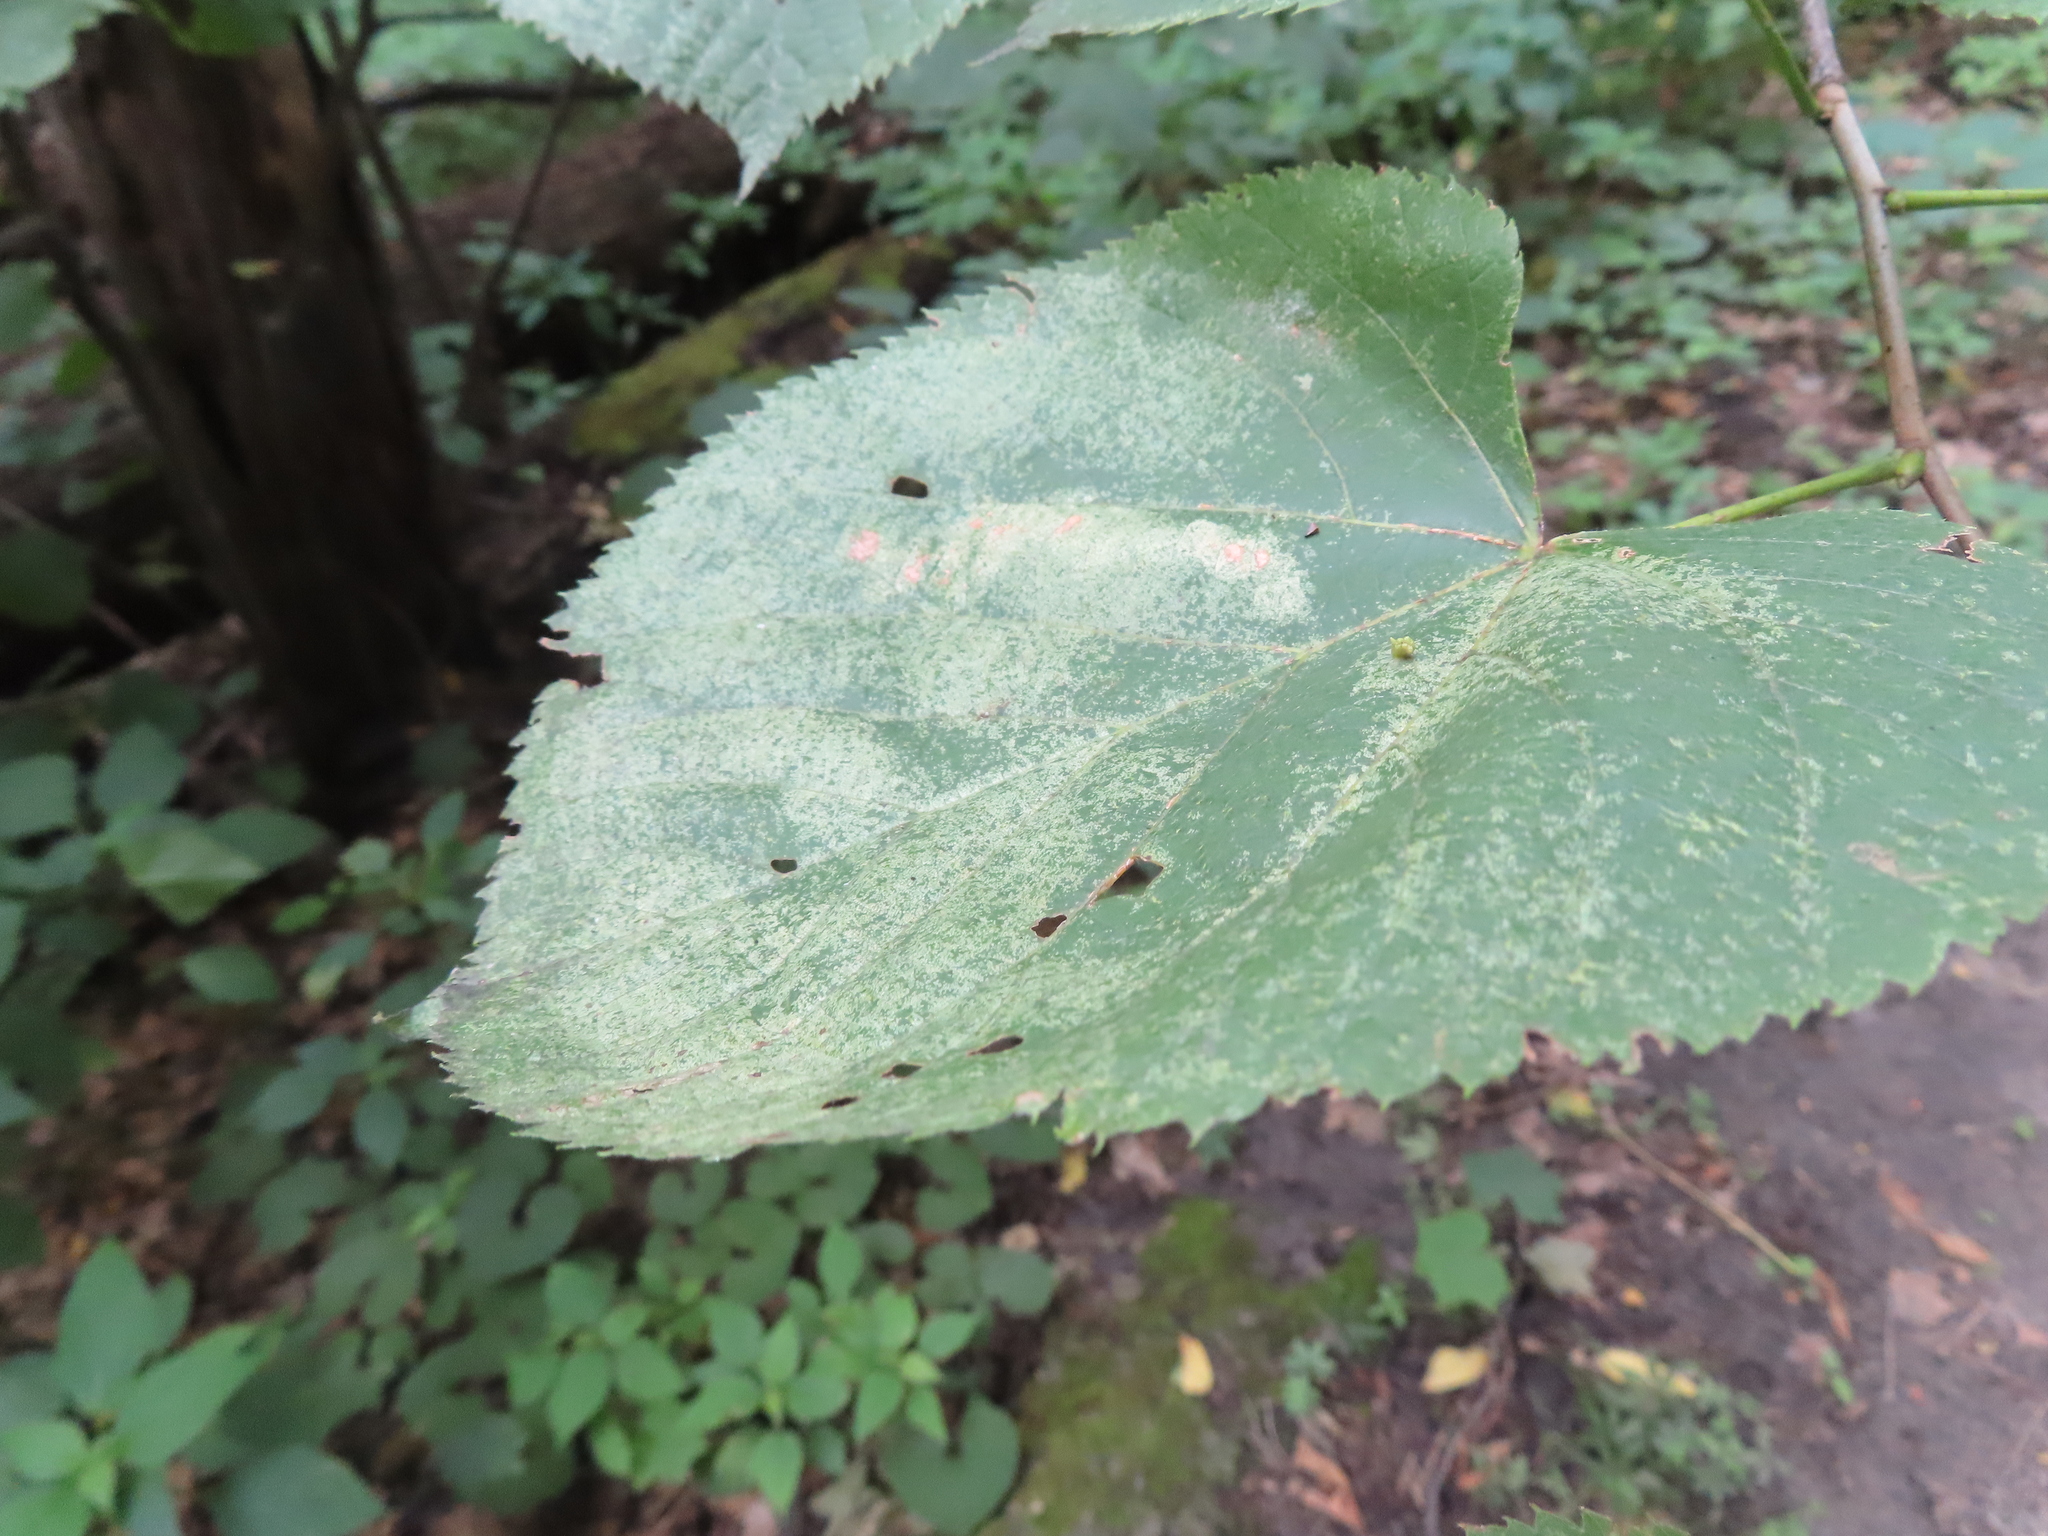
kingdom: Animalia
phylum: Arthropoda
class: Insecta
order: Hemiptera
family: Tingidae
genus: Gargaphia
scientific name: Gargaphia tiliae
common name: Basswood lace bug
